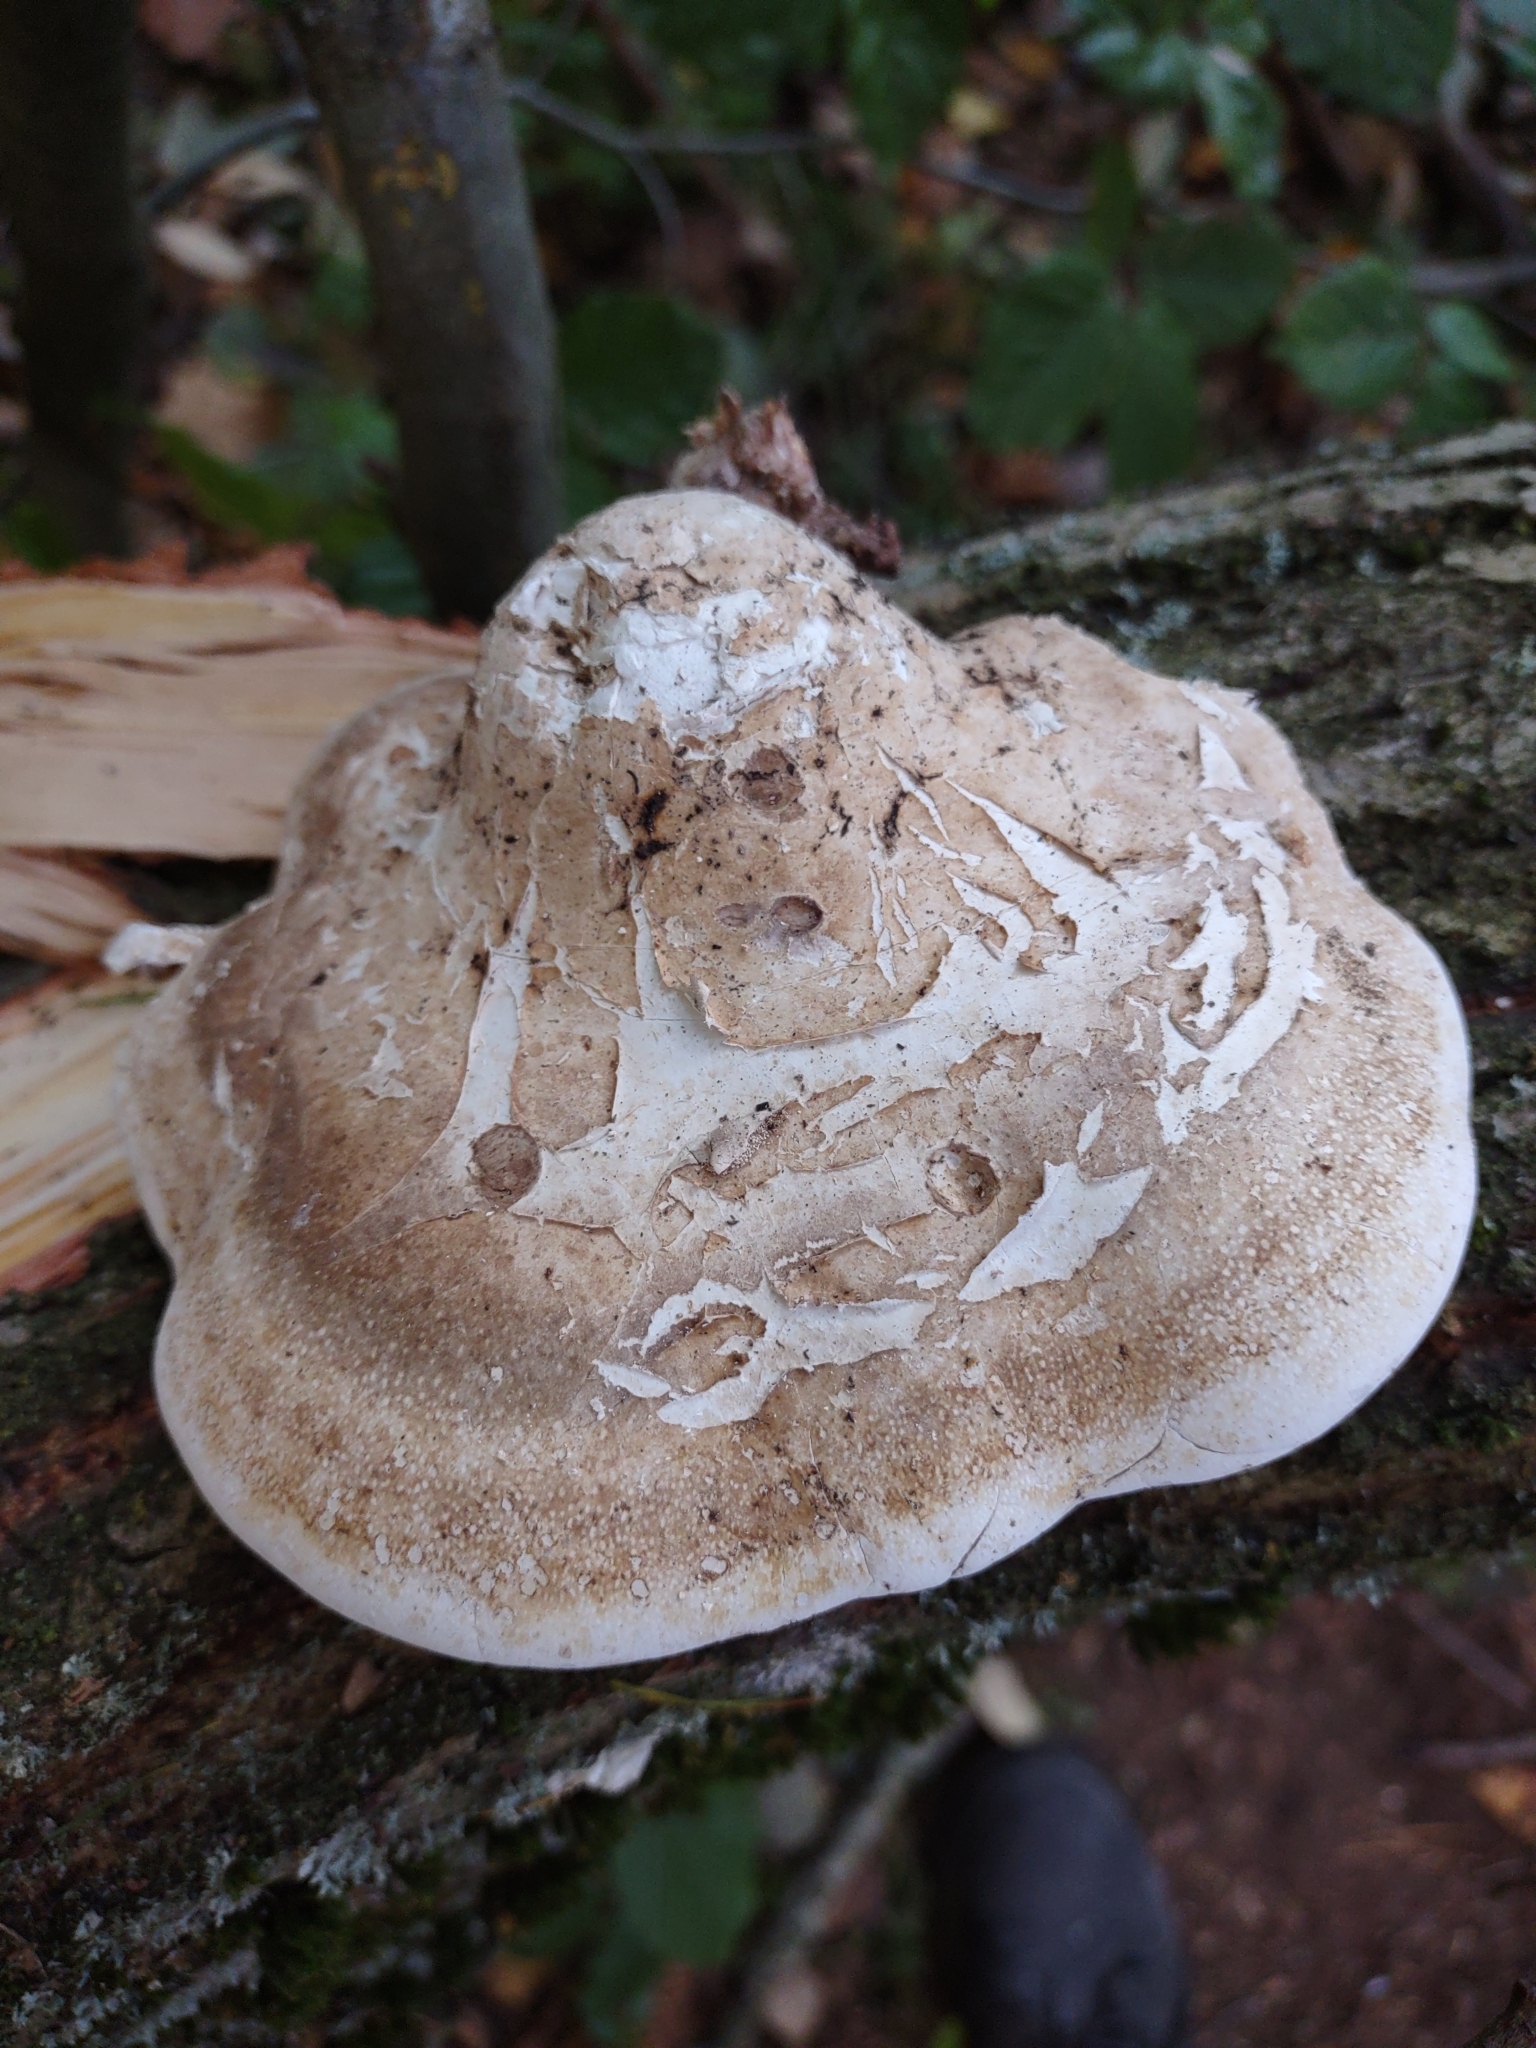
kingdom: Fungi
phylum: Basidiomycota
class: Agaricomycetes
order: Polyporales
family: Fomitopsidaceae
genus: Fomitopsis
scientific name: Fomitopsis betulina
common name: Birch polypore
